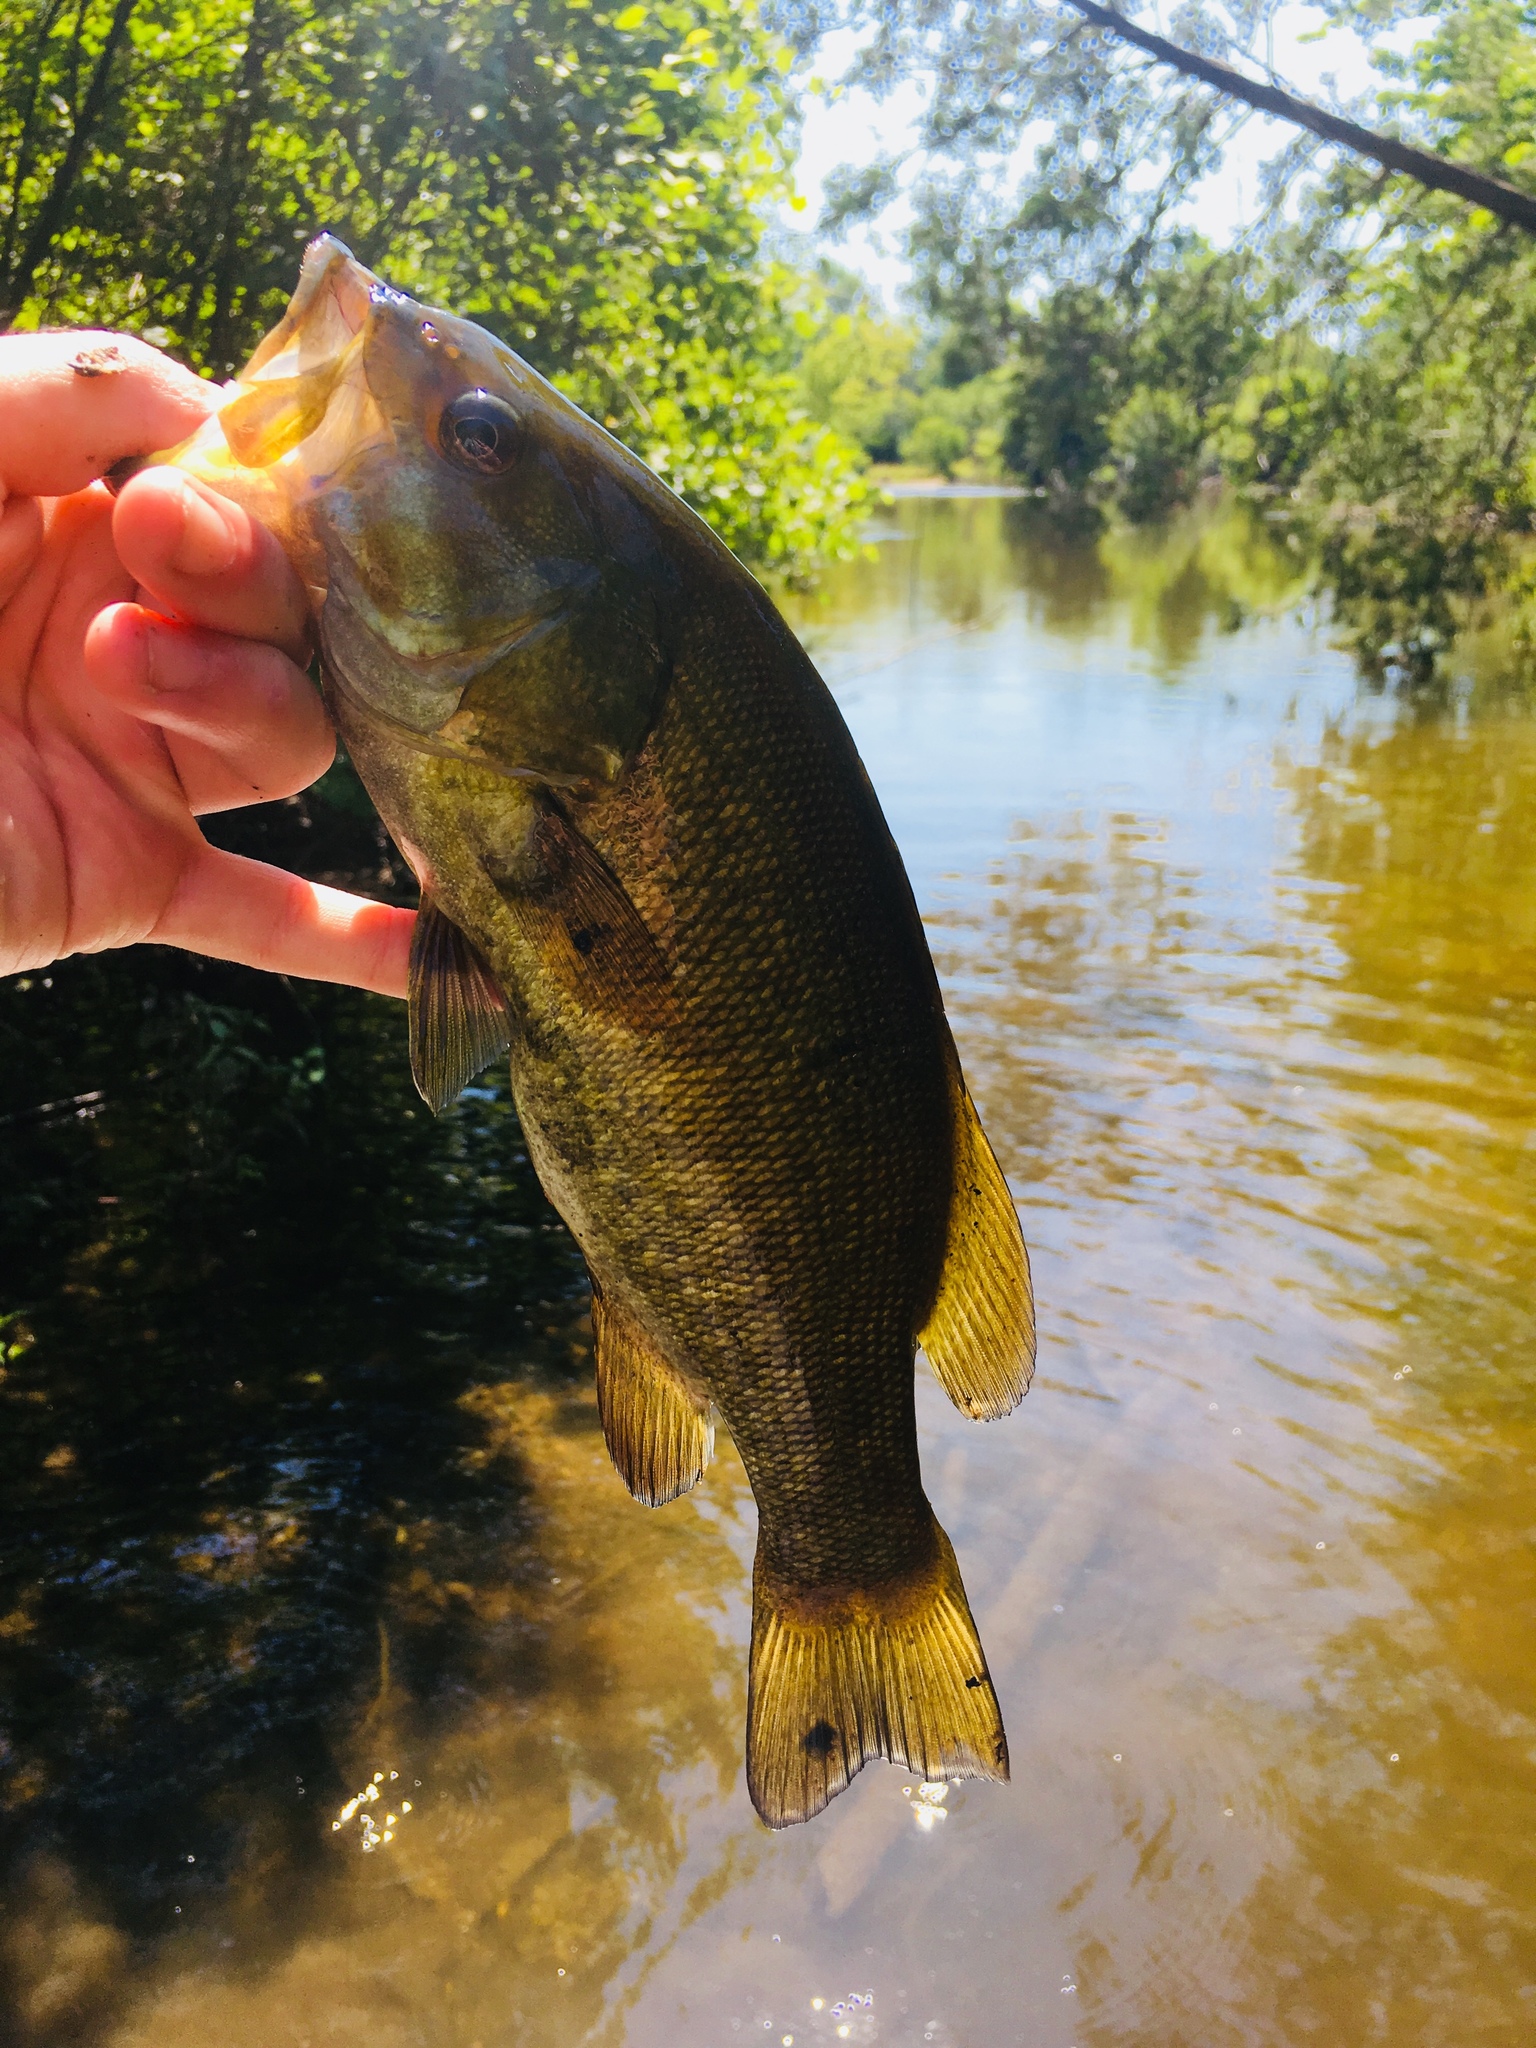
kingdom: Animalia
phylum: Chordata
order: Perciformes
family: Centrarchidae
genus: Micropterus
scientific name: Micropterus dolomieu
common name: Smallmouth bass
